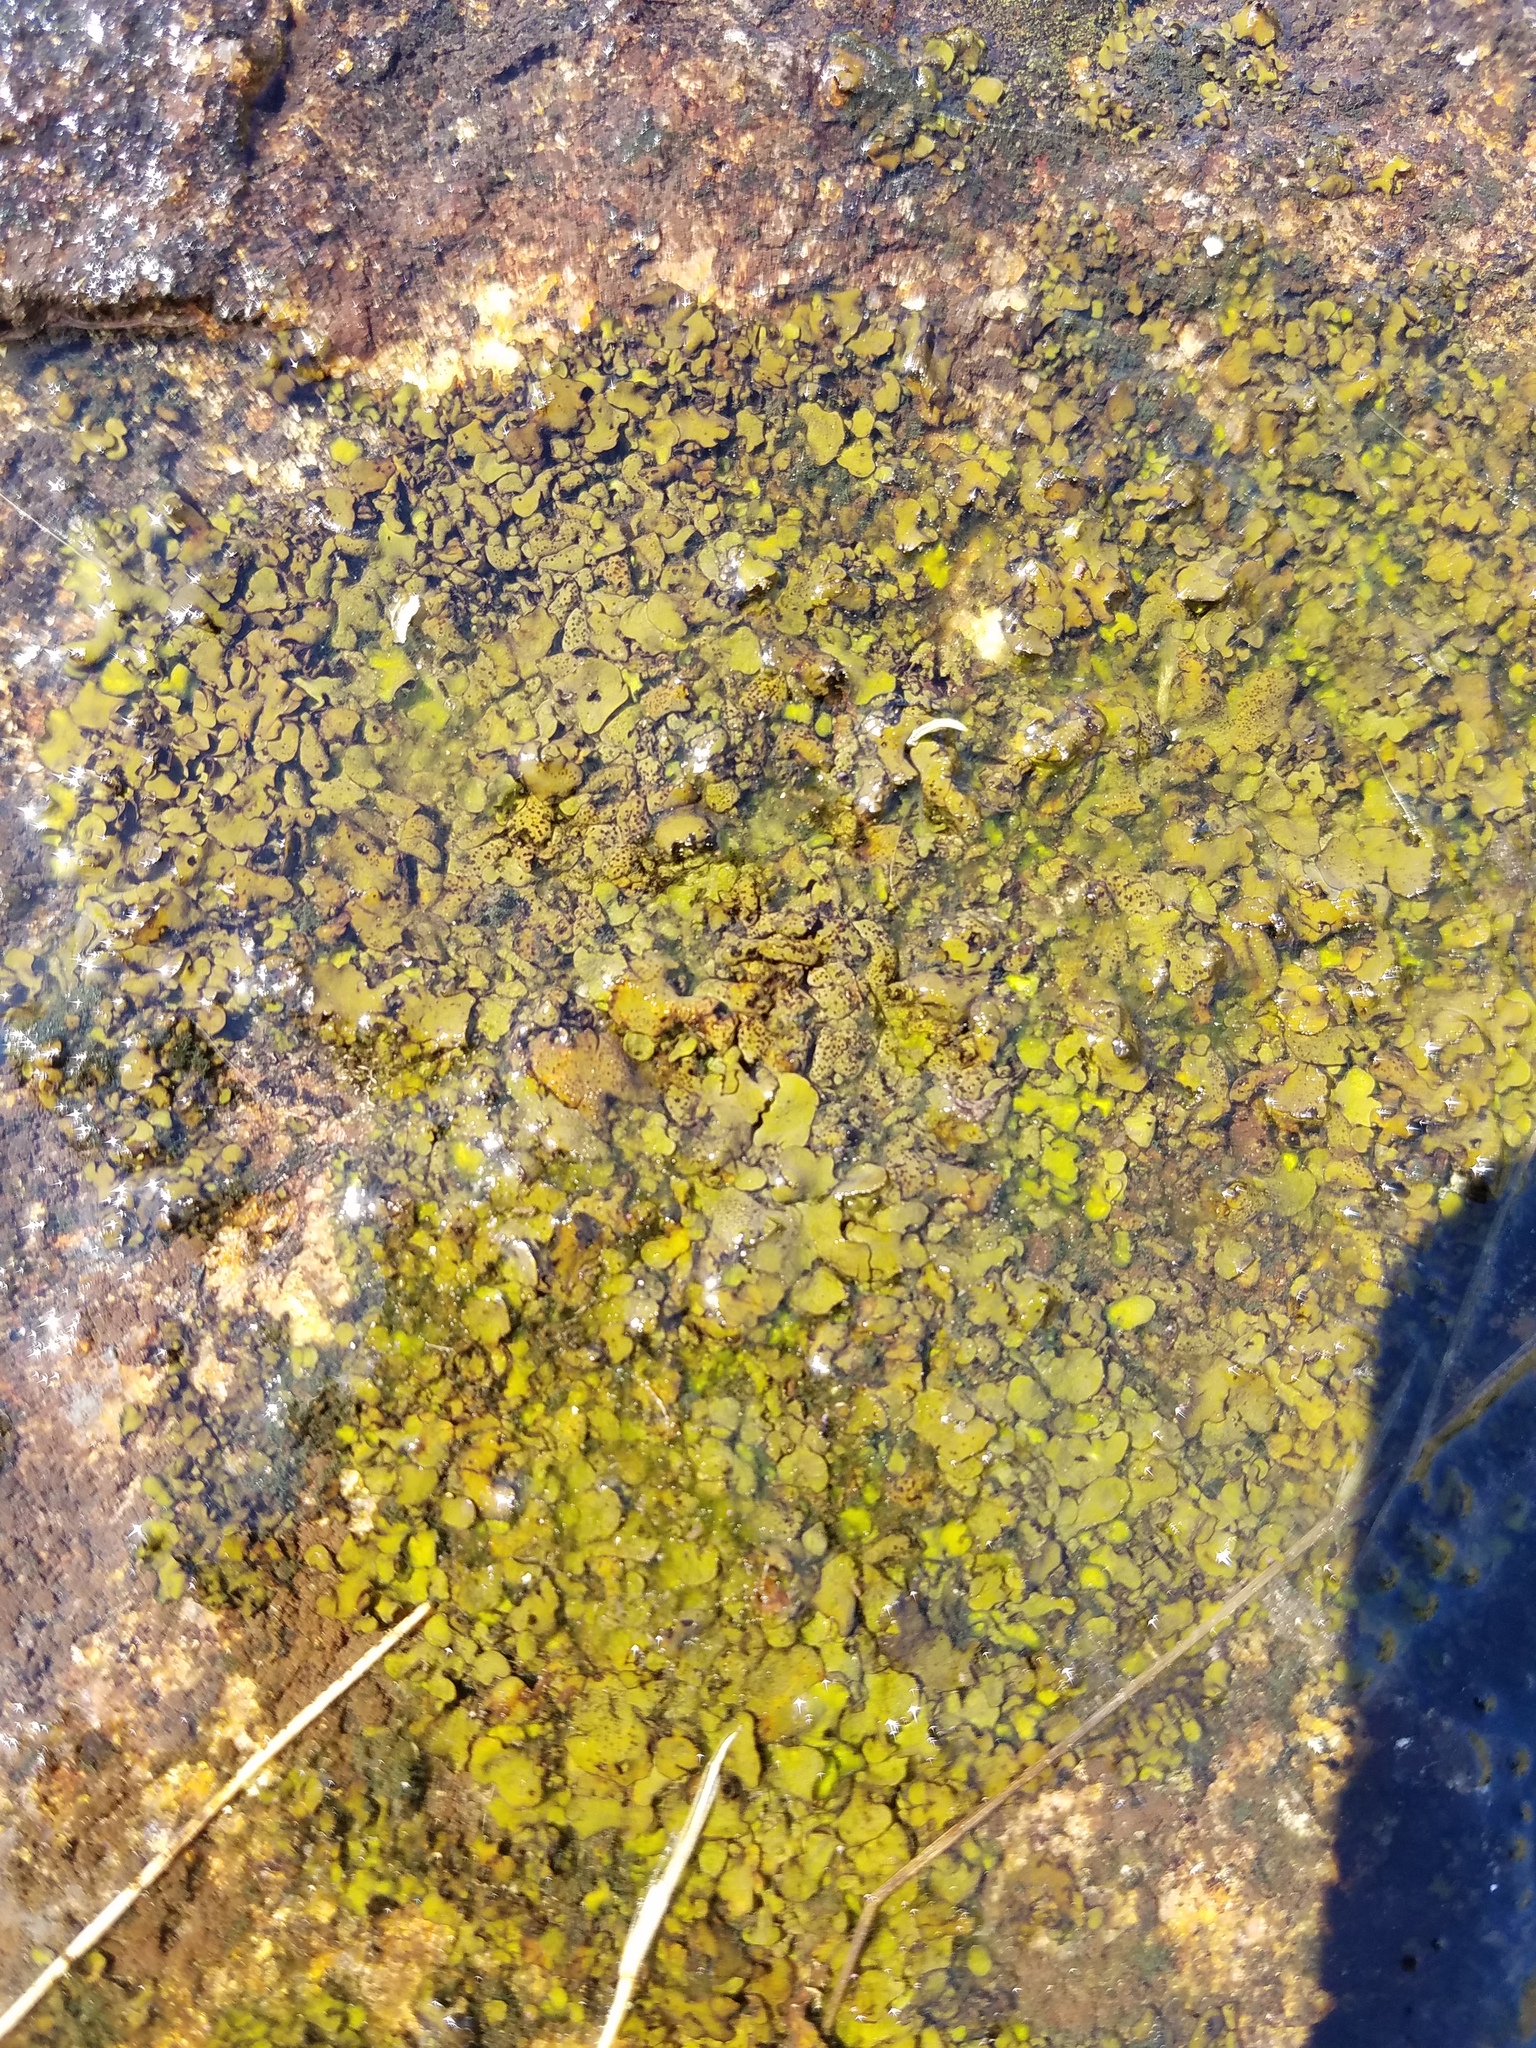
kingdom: Fungi
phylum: Ascomycota
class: Eurotiomycetes
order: Verrucariales
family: Verrucariaceae
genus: Dermatocarpon
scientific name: Dermatocarpon luridum
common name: Brook stippleback lichen
